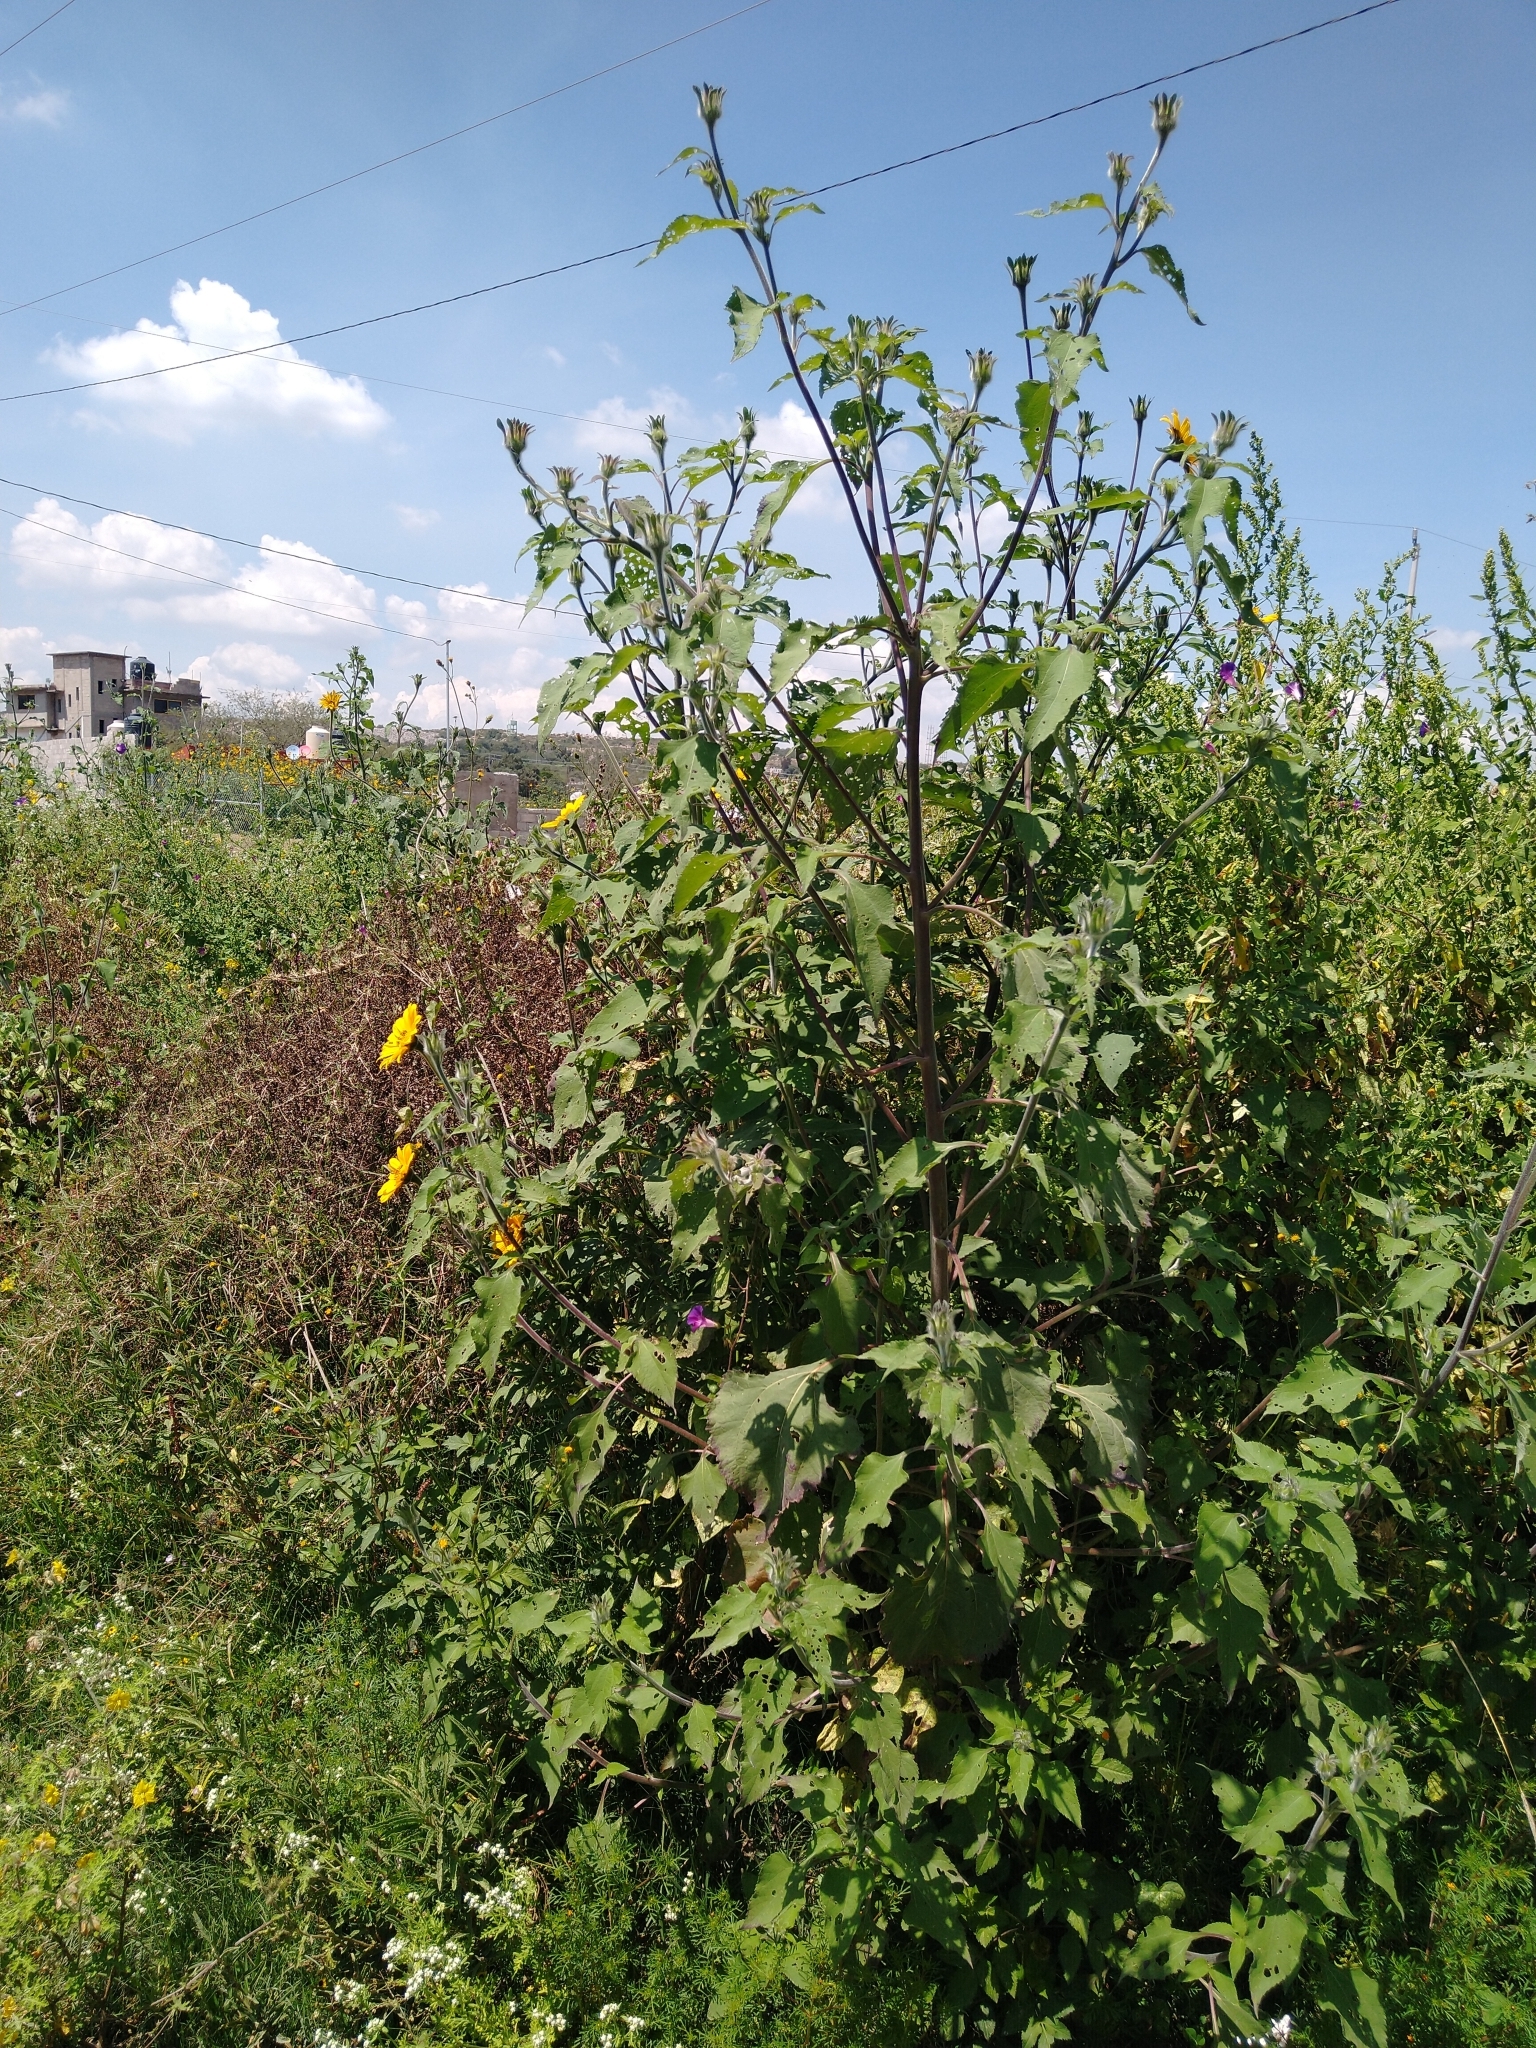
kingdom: Plantae
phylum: Tracheophyta
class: Magnoliopsida
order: Asterales
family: Asteraceae
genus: Tithonia
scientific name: Tithonia tubaeformis
